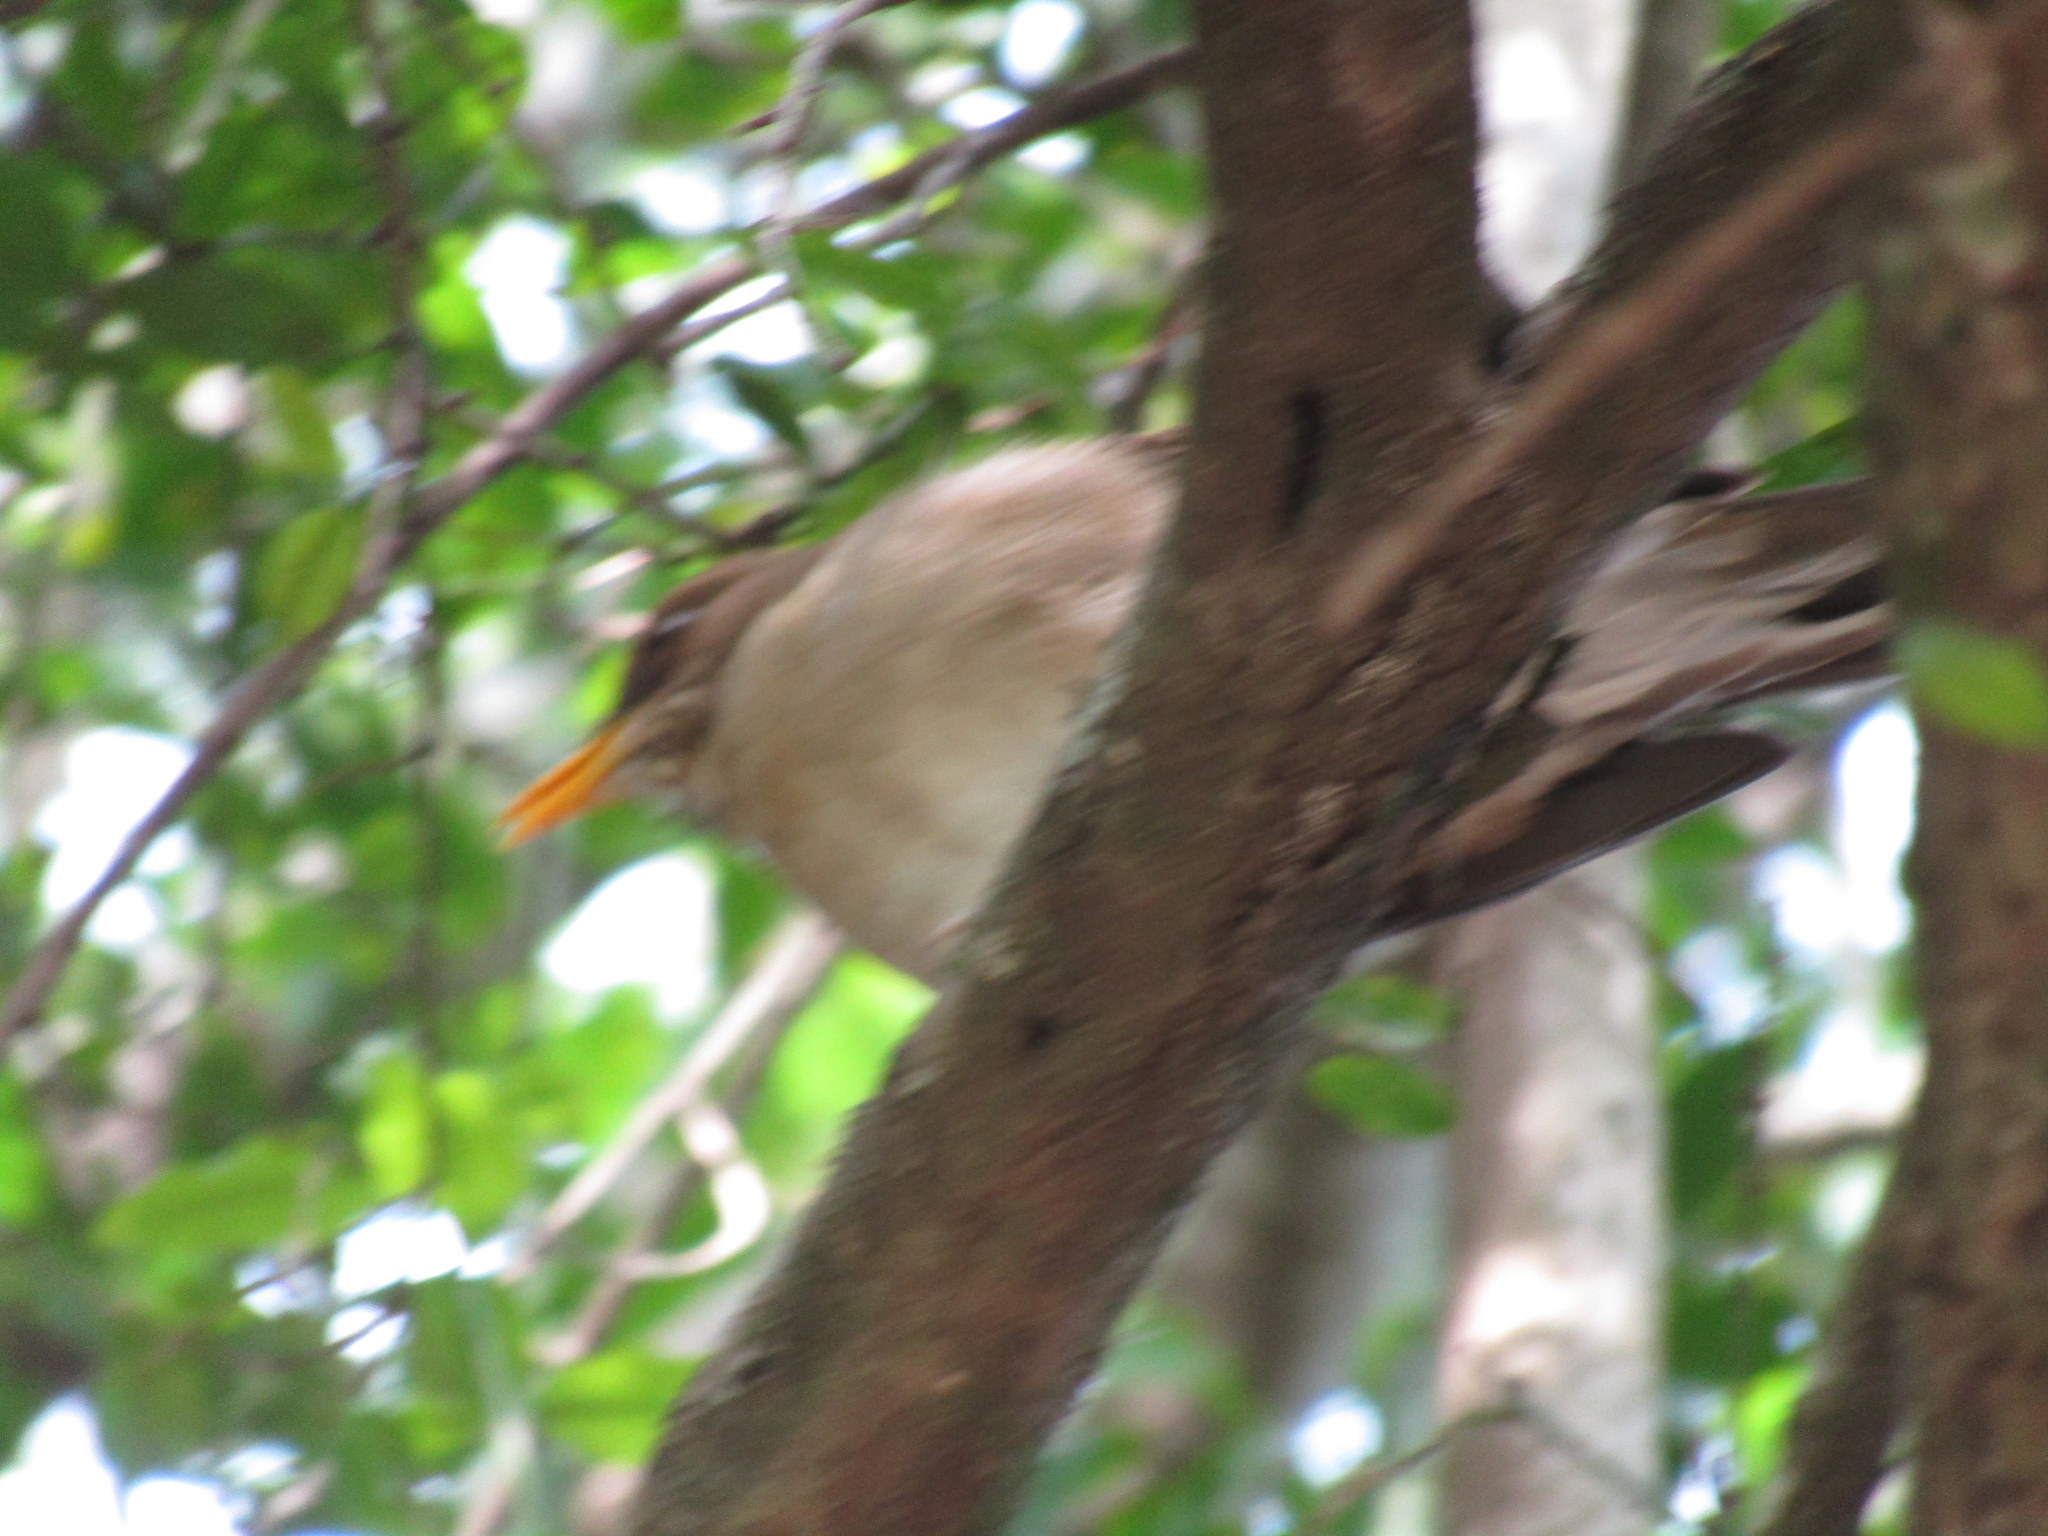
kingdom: Animalia
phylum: Chordata
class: Aves
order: Passeriformes
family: Turdidae
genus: Turdus
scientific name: Turdus amaurochalinus
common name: Creamy-bellied thrush
